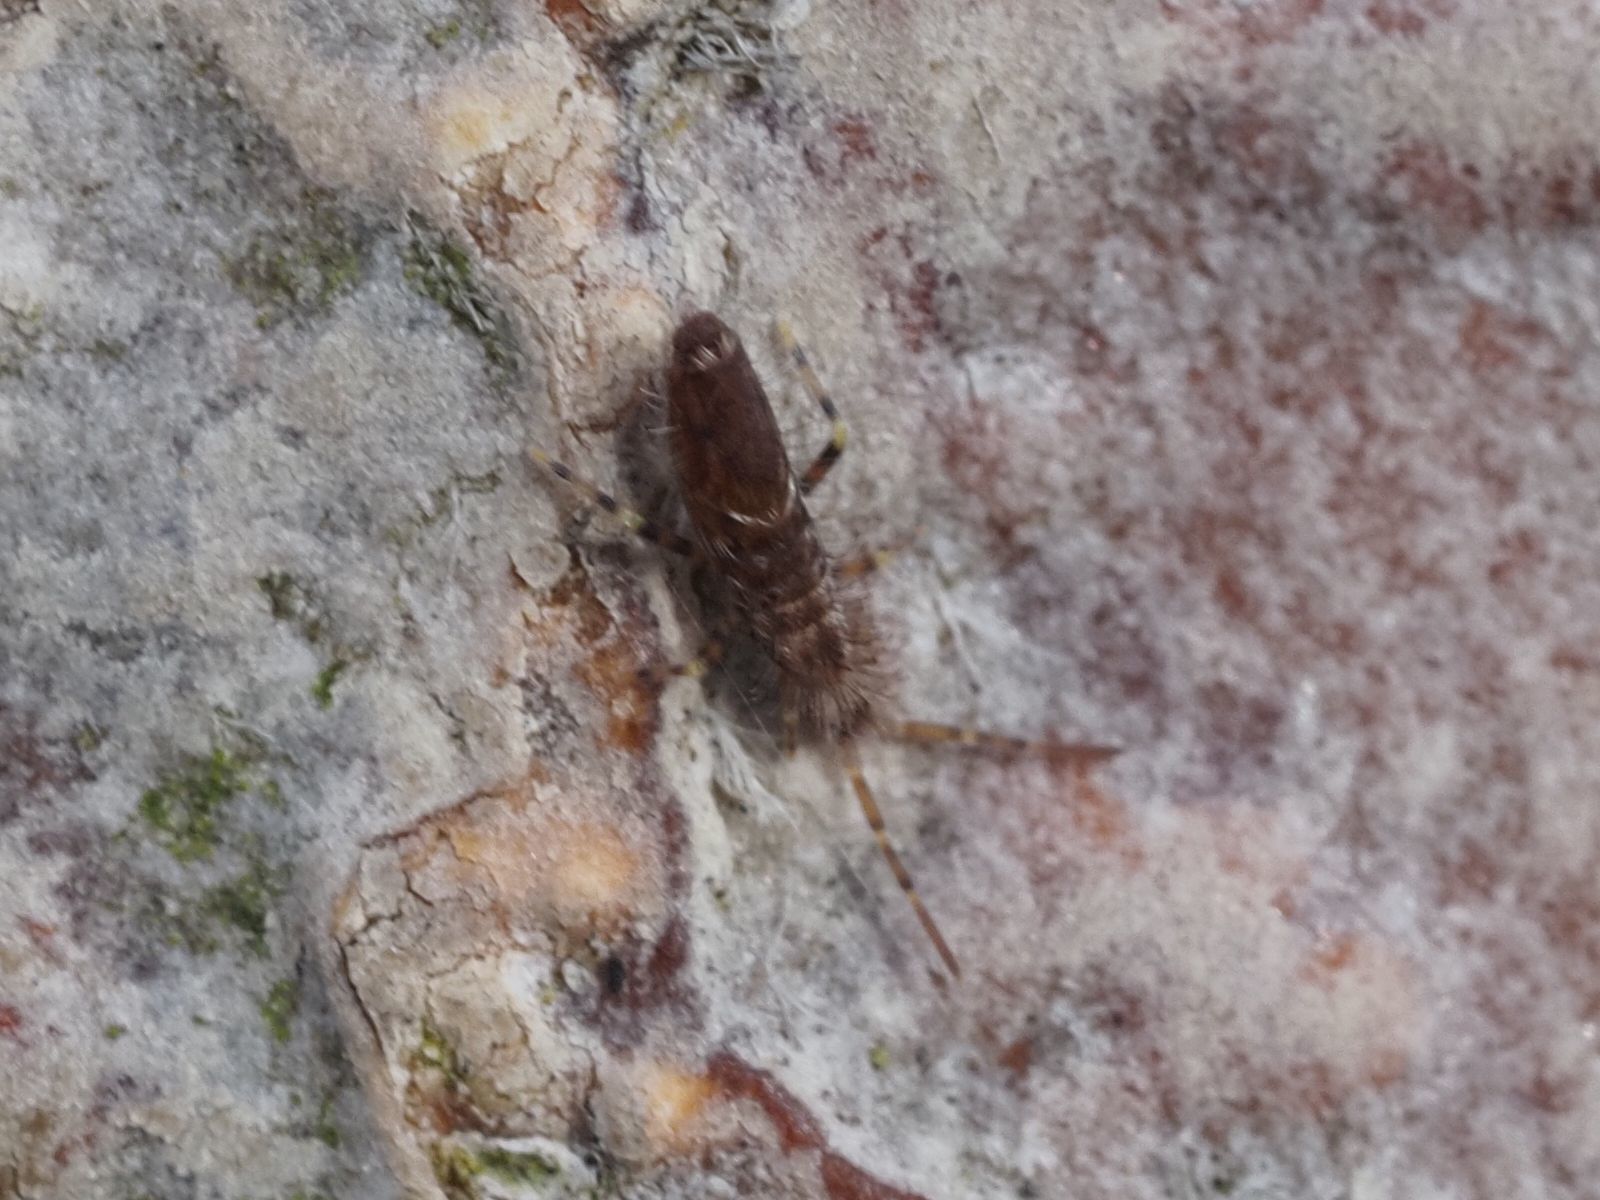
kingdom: Animalia
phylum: Arthropoda
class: Collembola
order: Entomobryomorpha
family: Entomobryidae
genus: Entomobrya
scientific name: Entomobrya dorsalis
